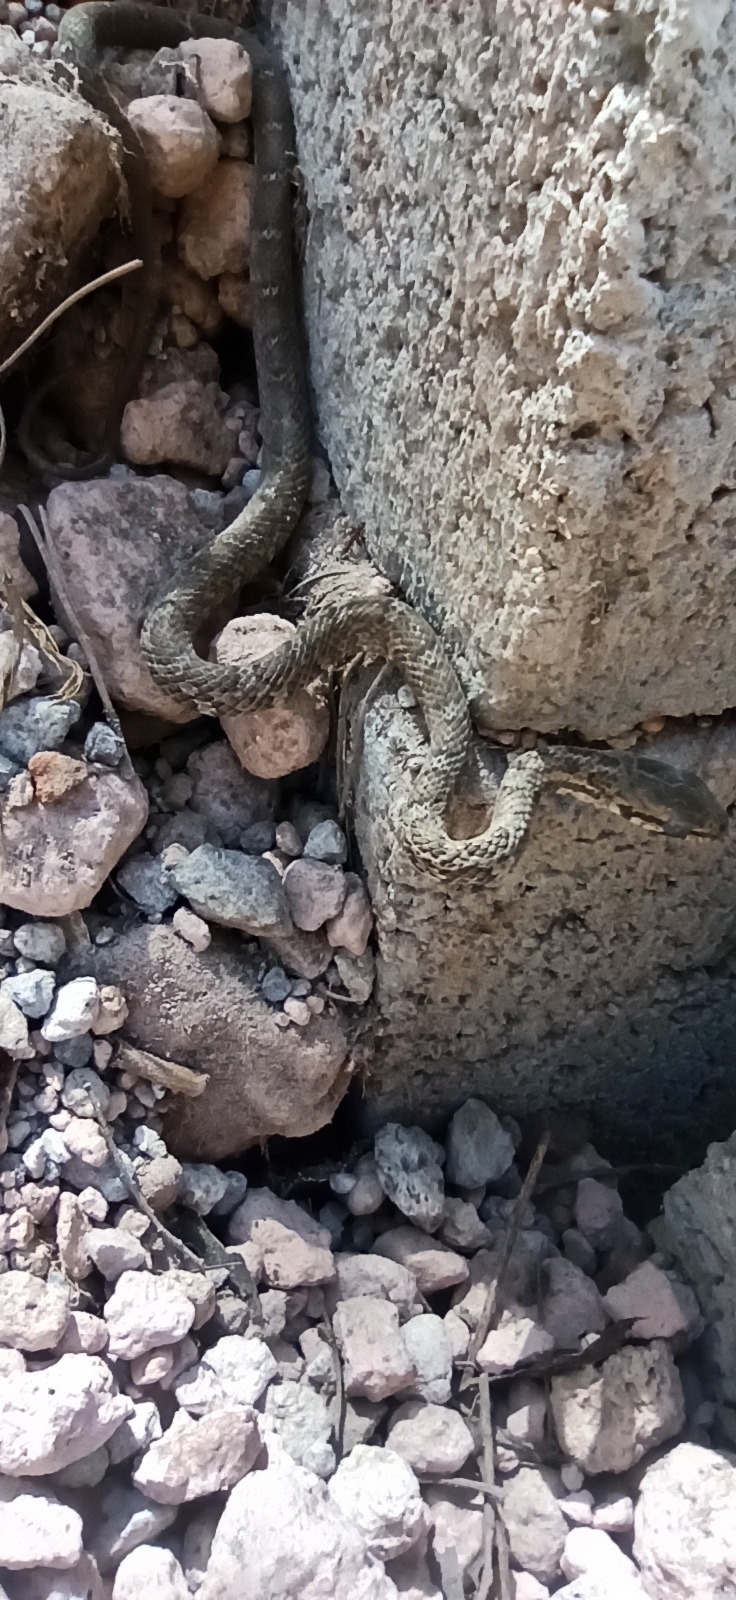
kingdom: Animalia
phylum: Chordata
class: Squamata
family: Colubridae
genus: Mastigodryas
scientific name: Mastigodryas pulchriceps
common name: Cope's tropical racer
